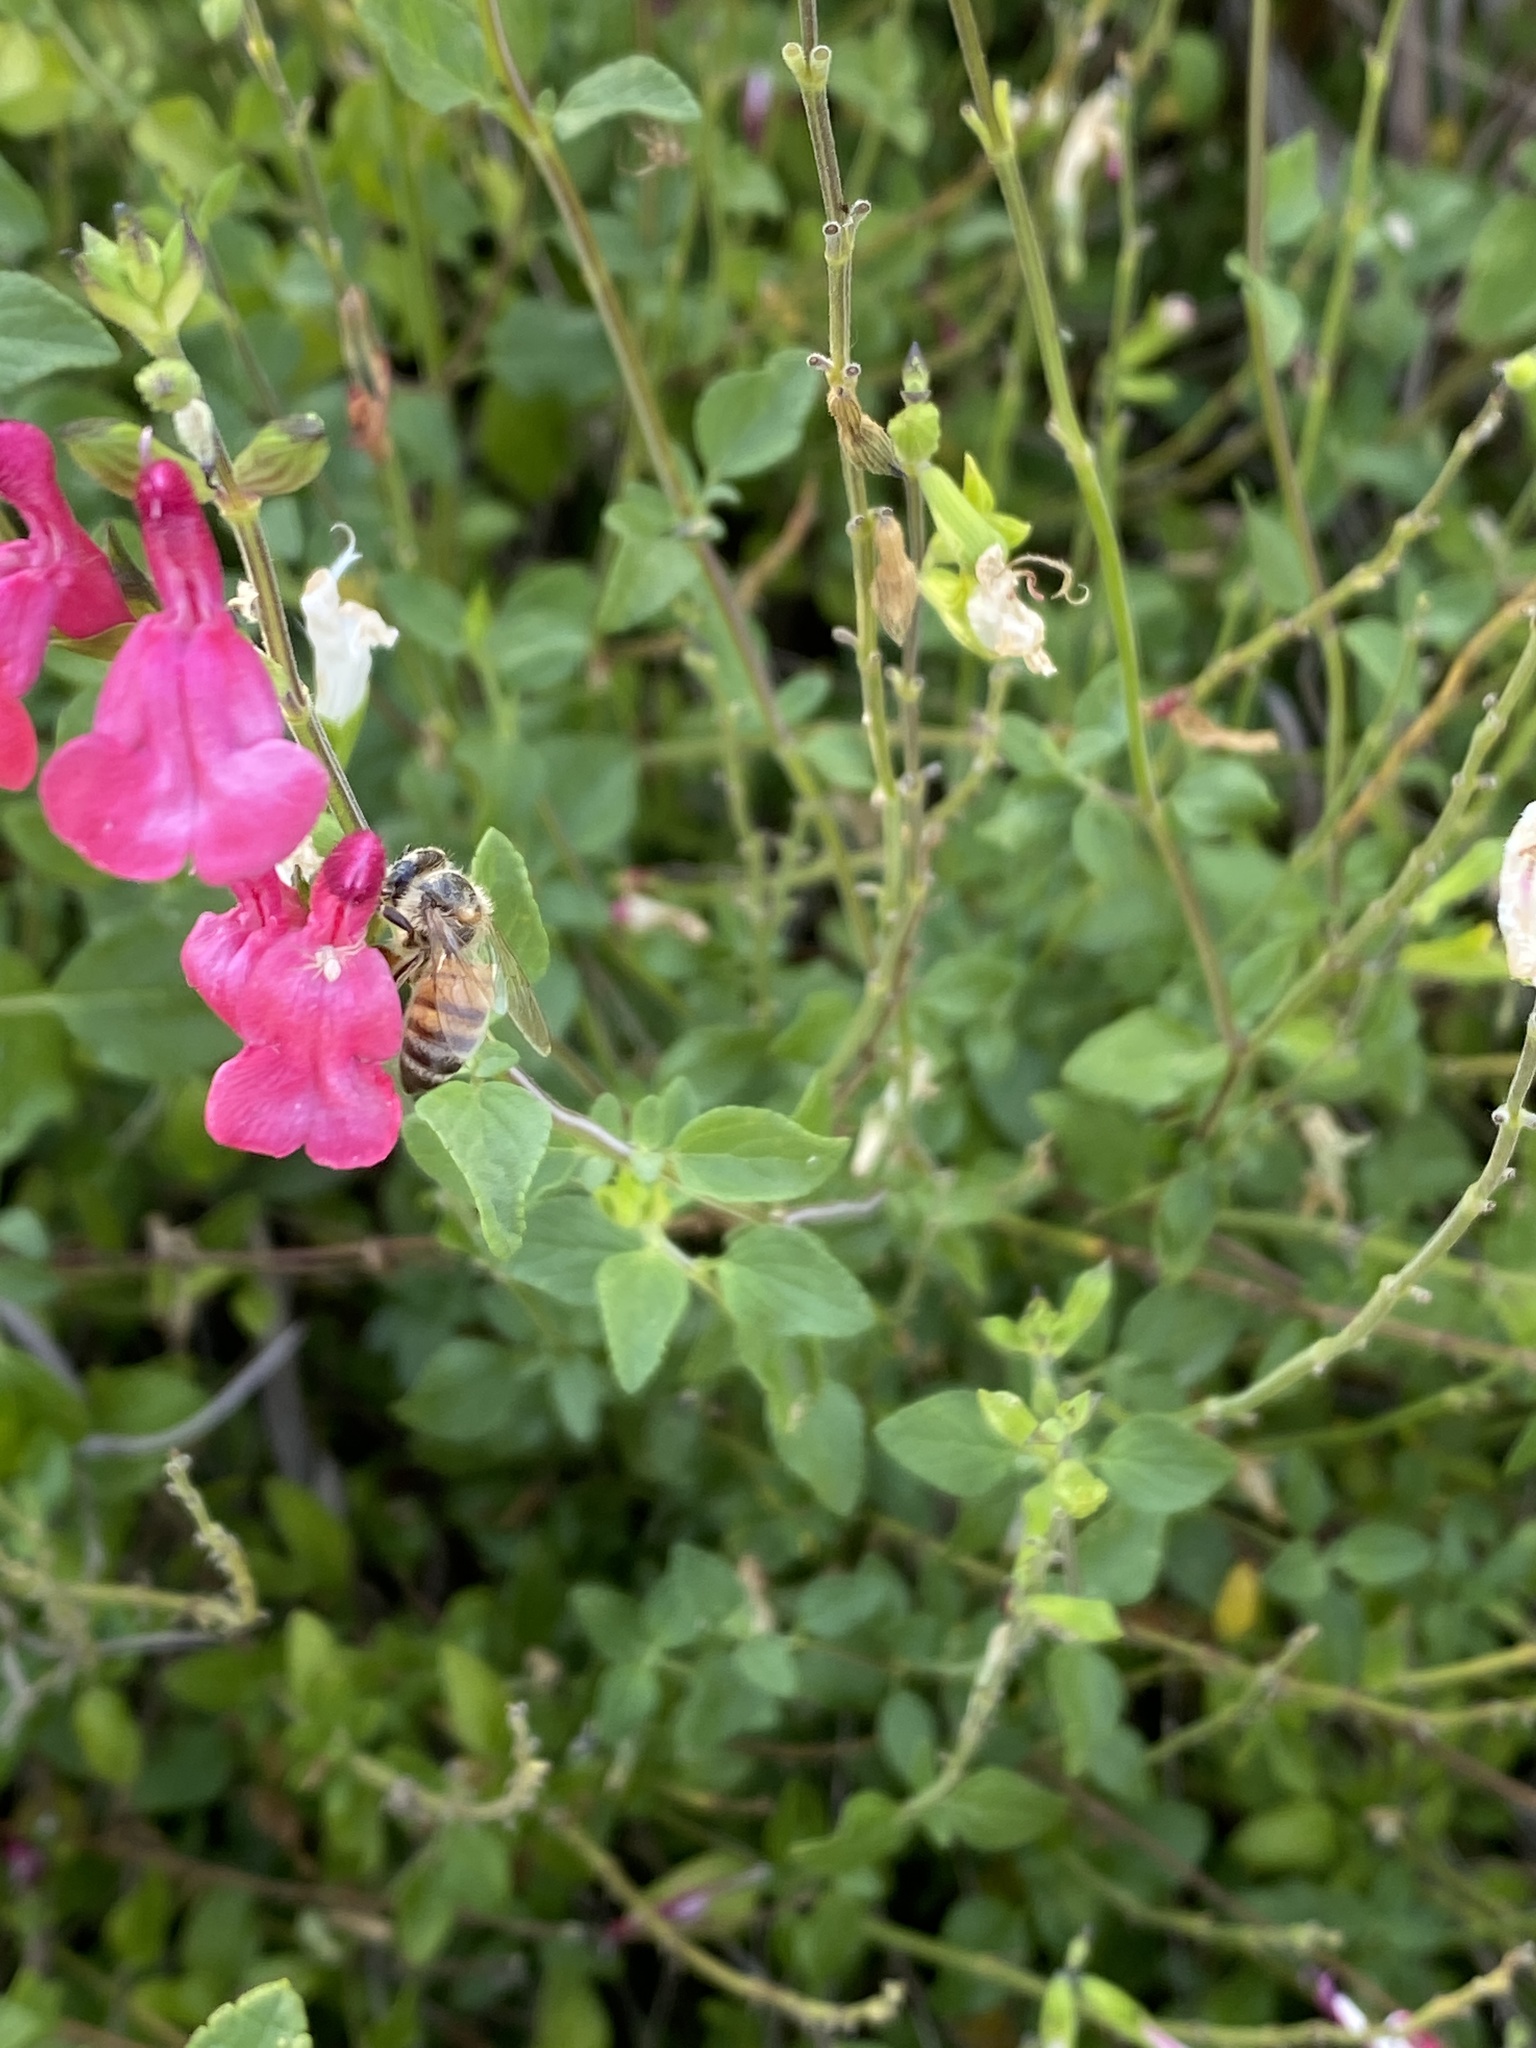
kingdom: Animalia
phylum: Arthropoda
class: Insecta
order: Hymenoptera
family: Apidae
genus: Apis
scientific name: Apis mellifera
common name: Honey bee
